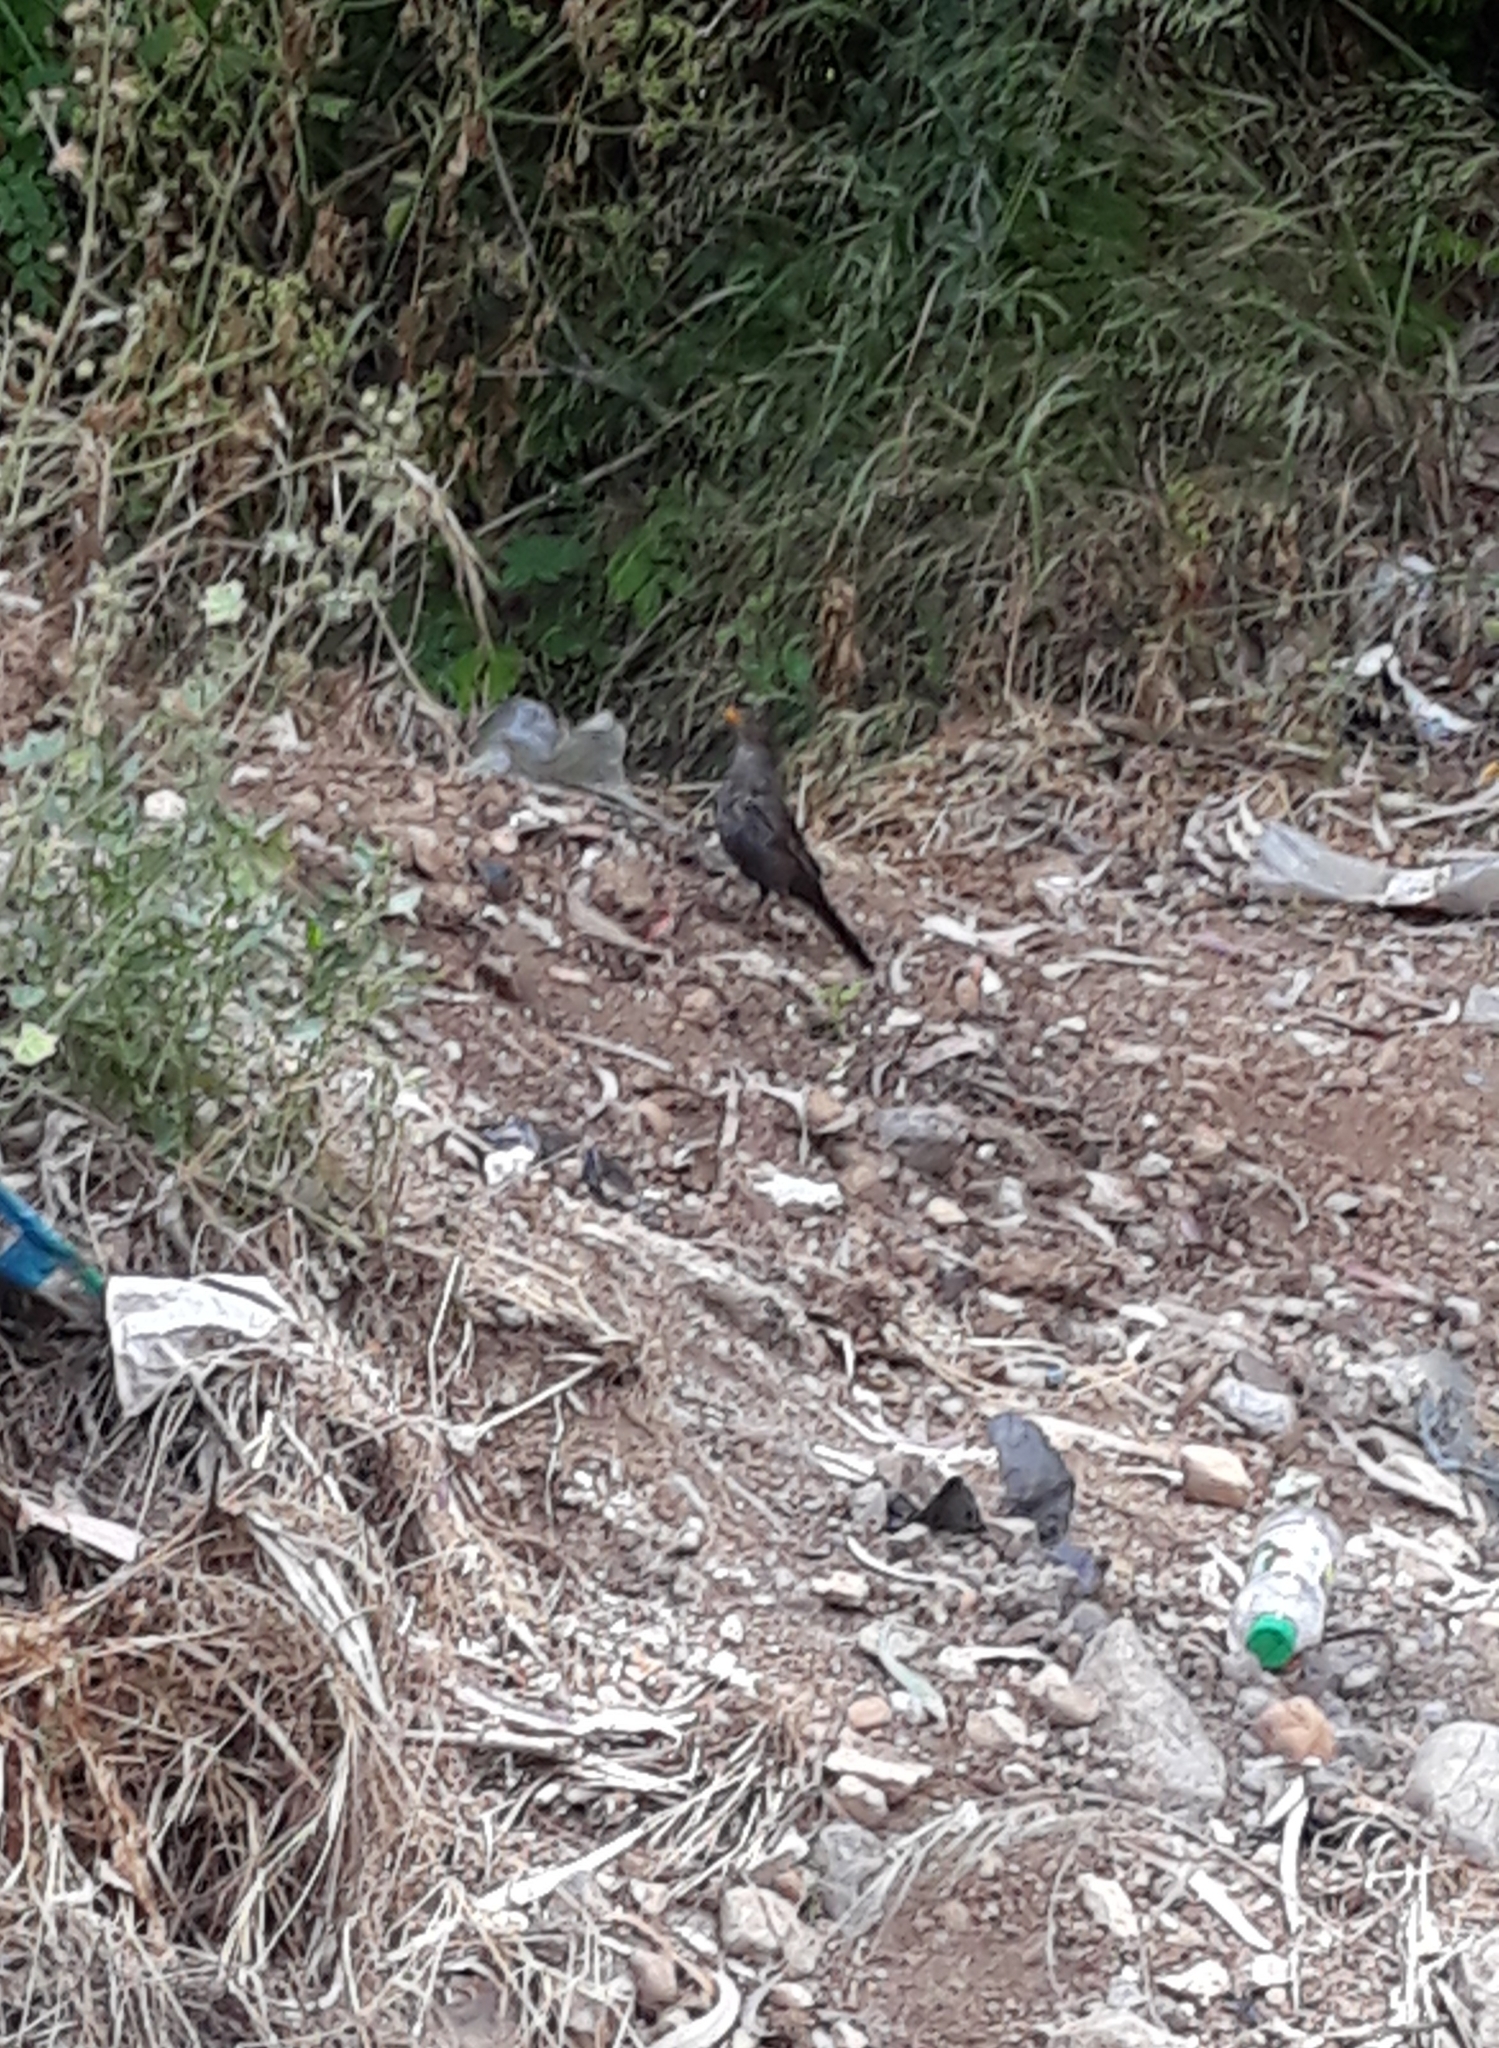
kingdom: Animalia
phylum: Chordata
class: Aves
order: Passeriformes
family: Turdidae
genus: Turdus
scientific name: Turdus merula
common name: Common blackbird
